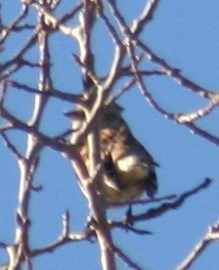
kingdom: Animalia
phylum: Chordata
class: Aves
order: Passeriformes
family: Passerellidae
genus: Spizelloides
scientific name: Spizelloides arborea
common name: American tree sparrow
